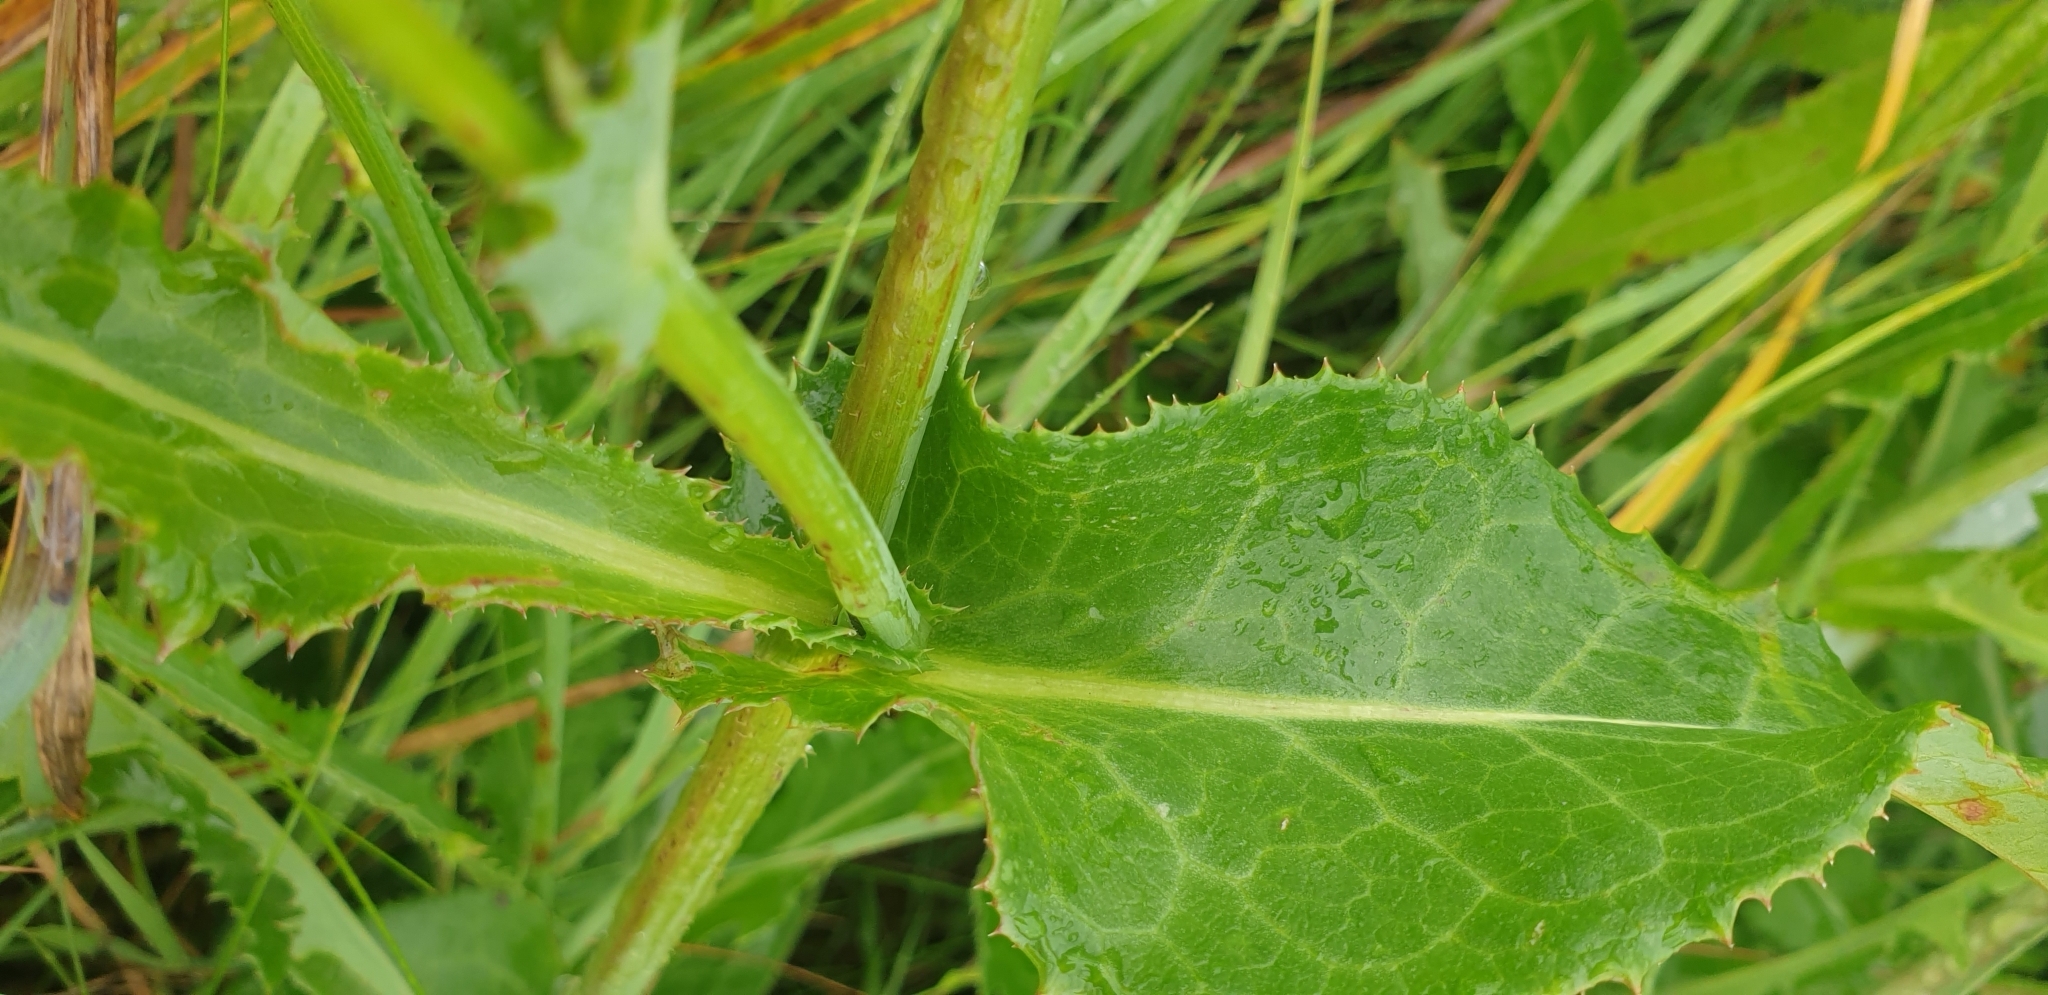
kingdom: Plantae
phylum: Tracheophyta
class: Magnoliopsida
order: Asterales
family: Asteraceae
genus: Sonchus
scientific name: Sonchus arvensis
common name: Perennial sow-thistle
